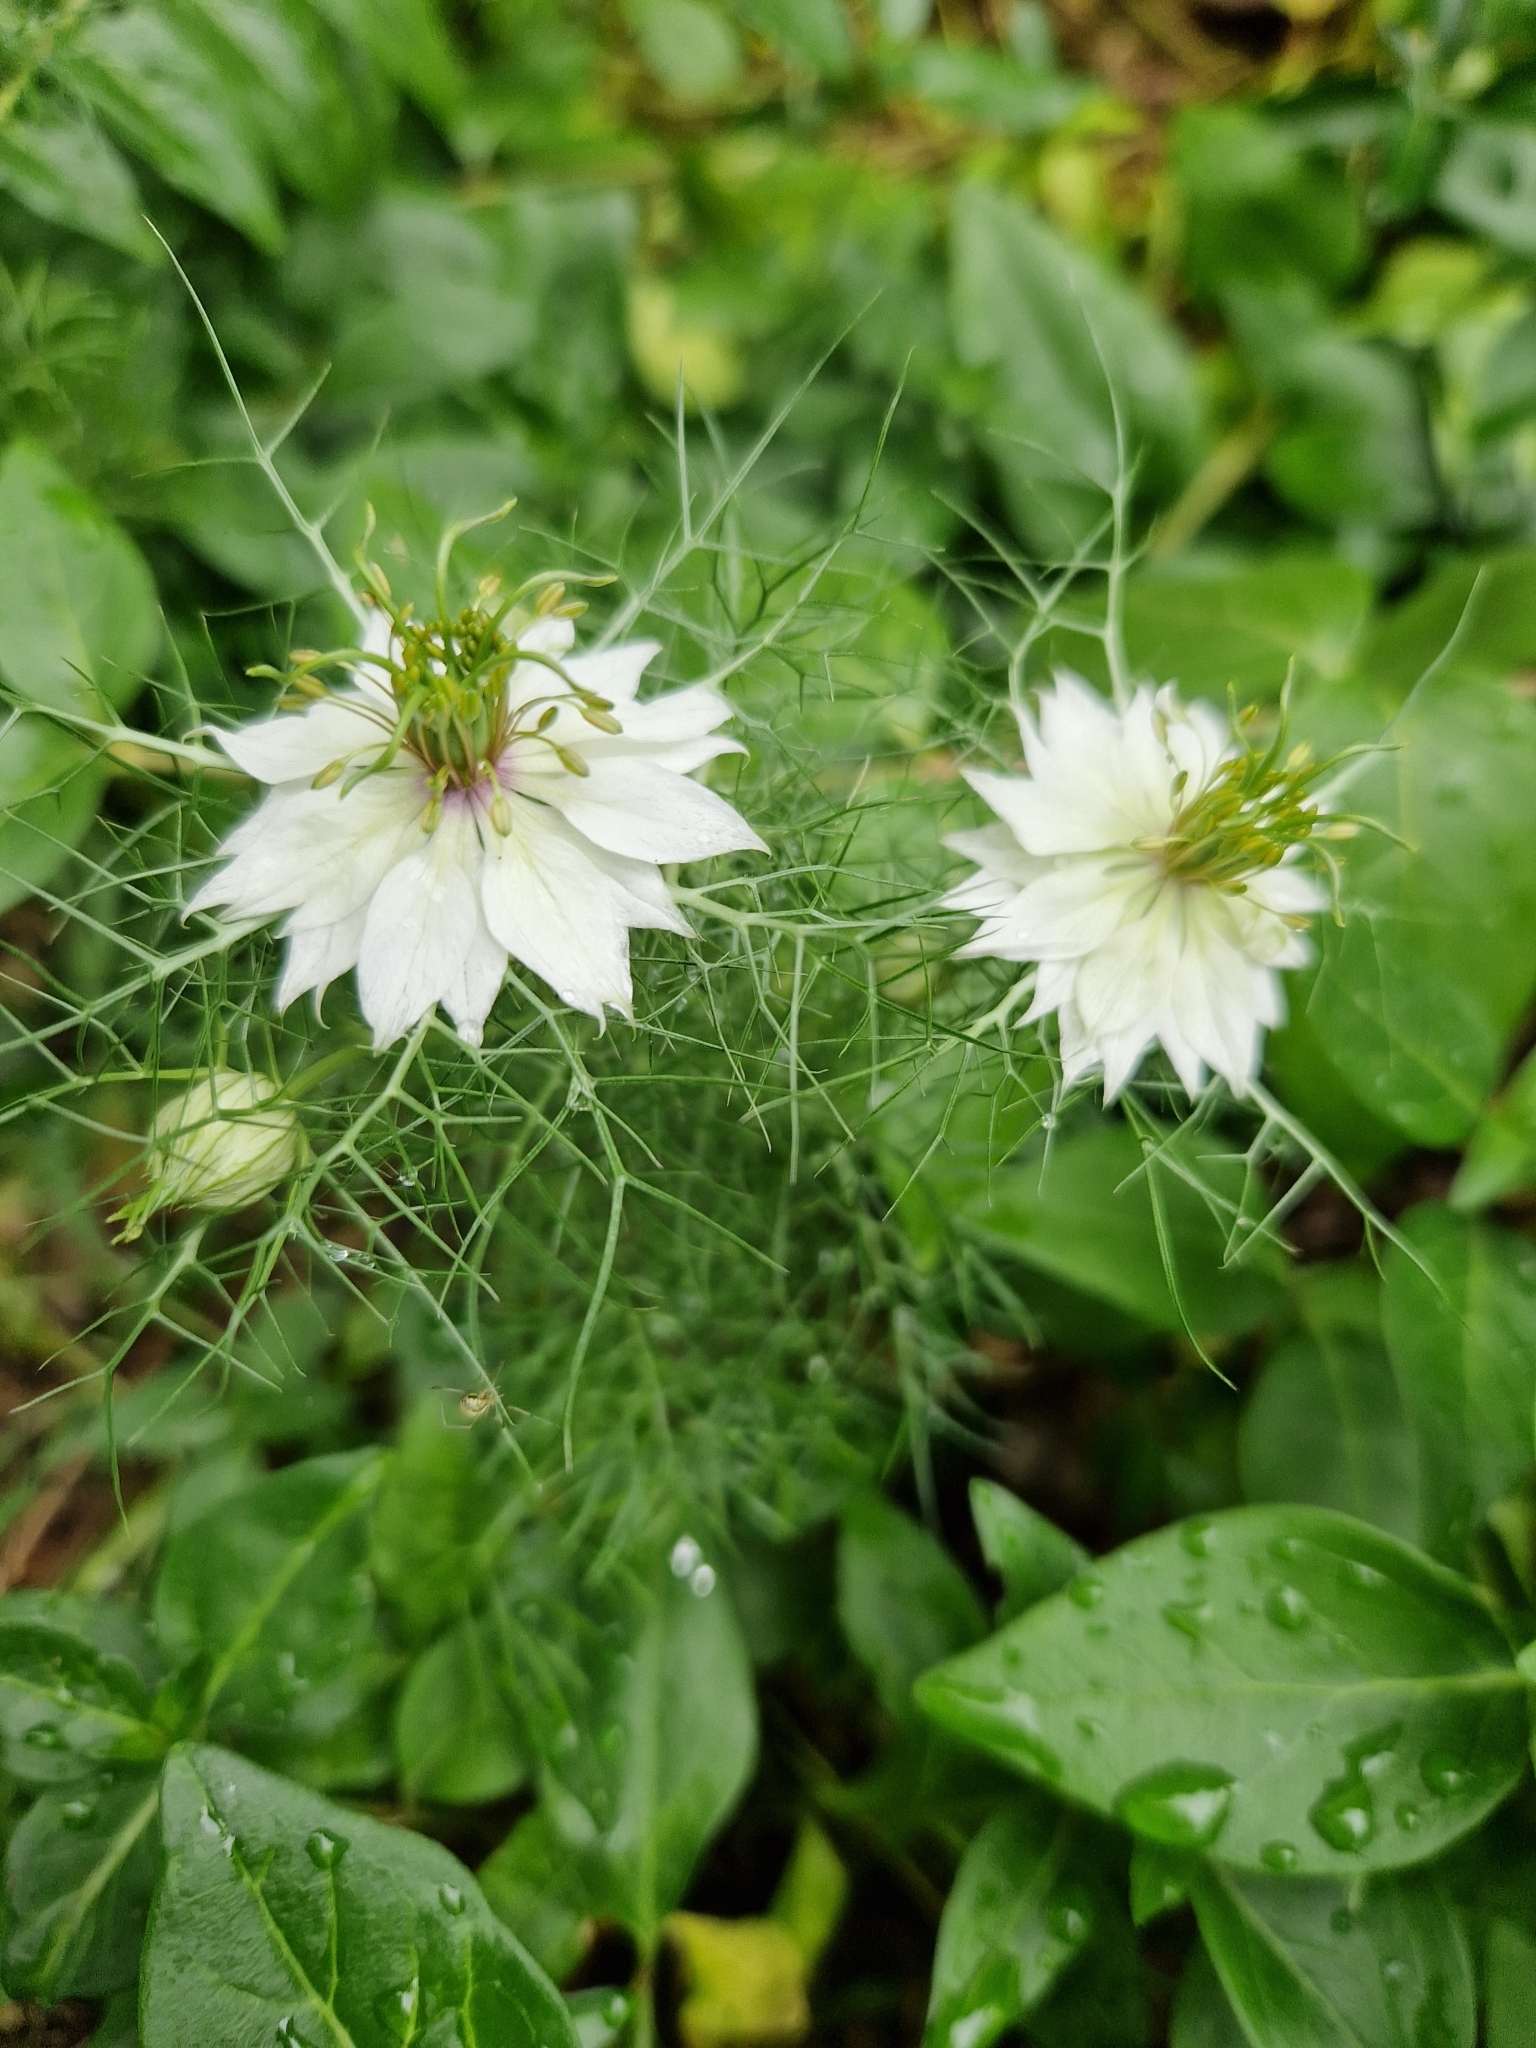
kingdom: Plantae
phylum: Tracheophyta
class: Magnoliopsida
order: Ranunculales
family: Ranunculaceae
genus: Nigella
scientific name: Nigella damascena
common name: Love-in-a-mist
